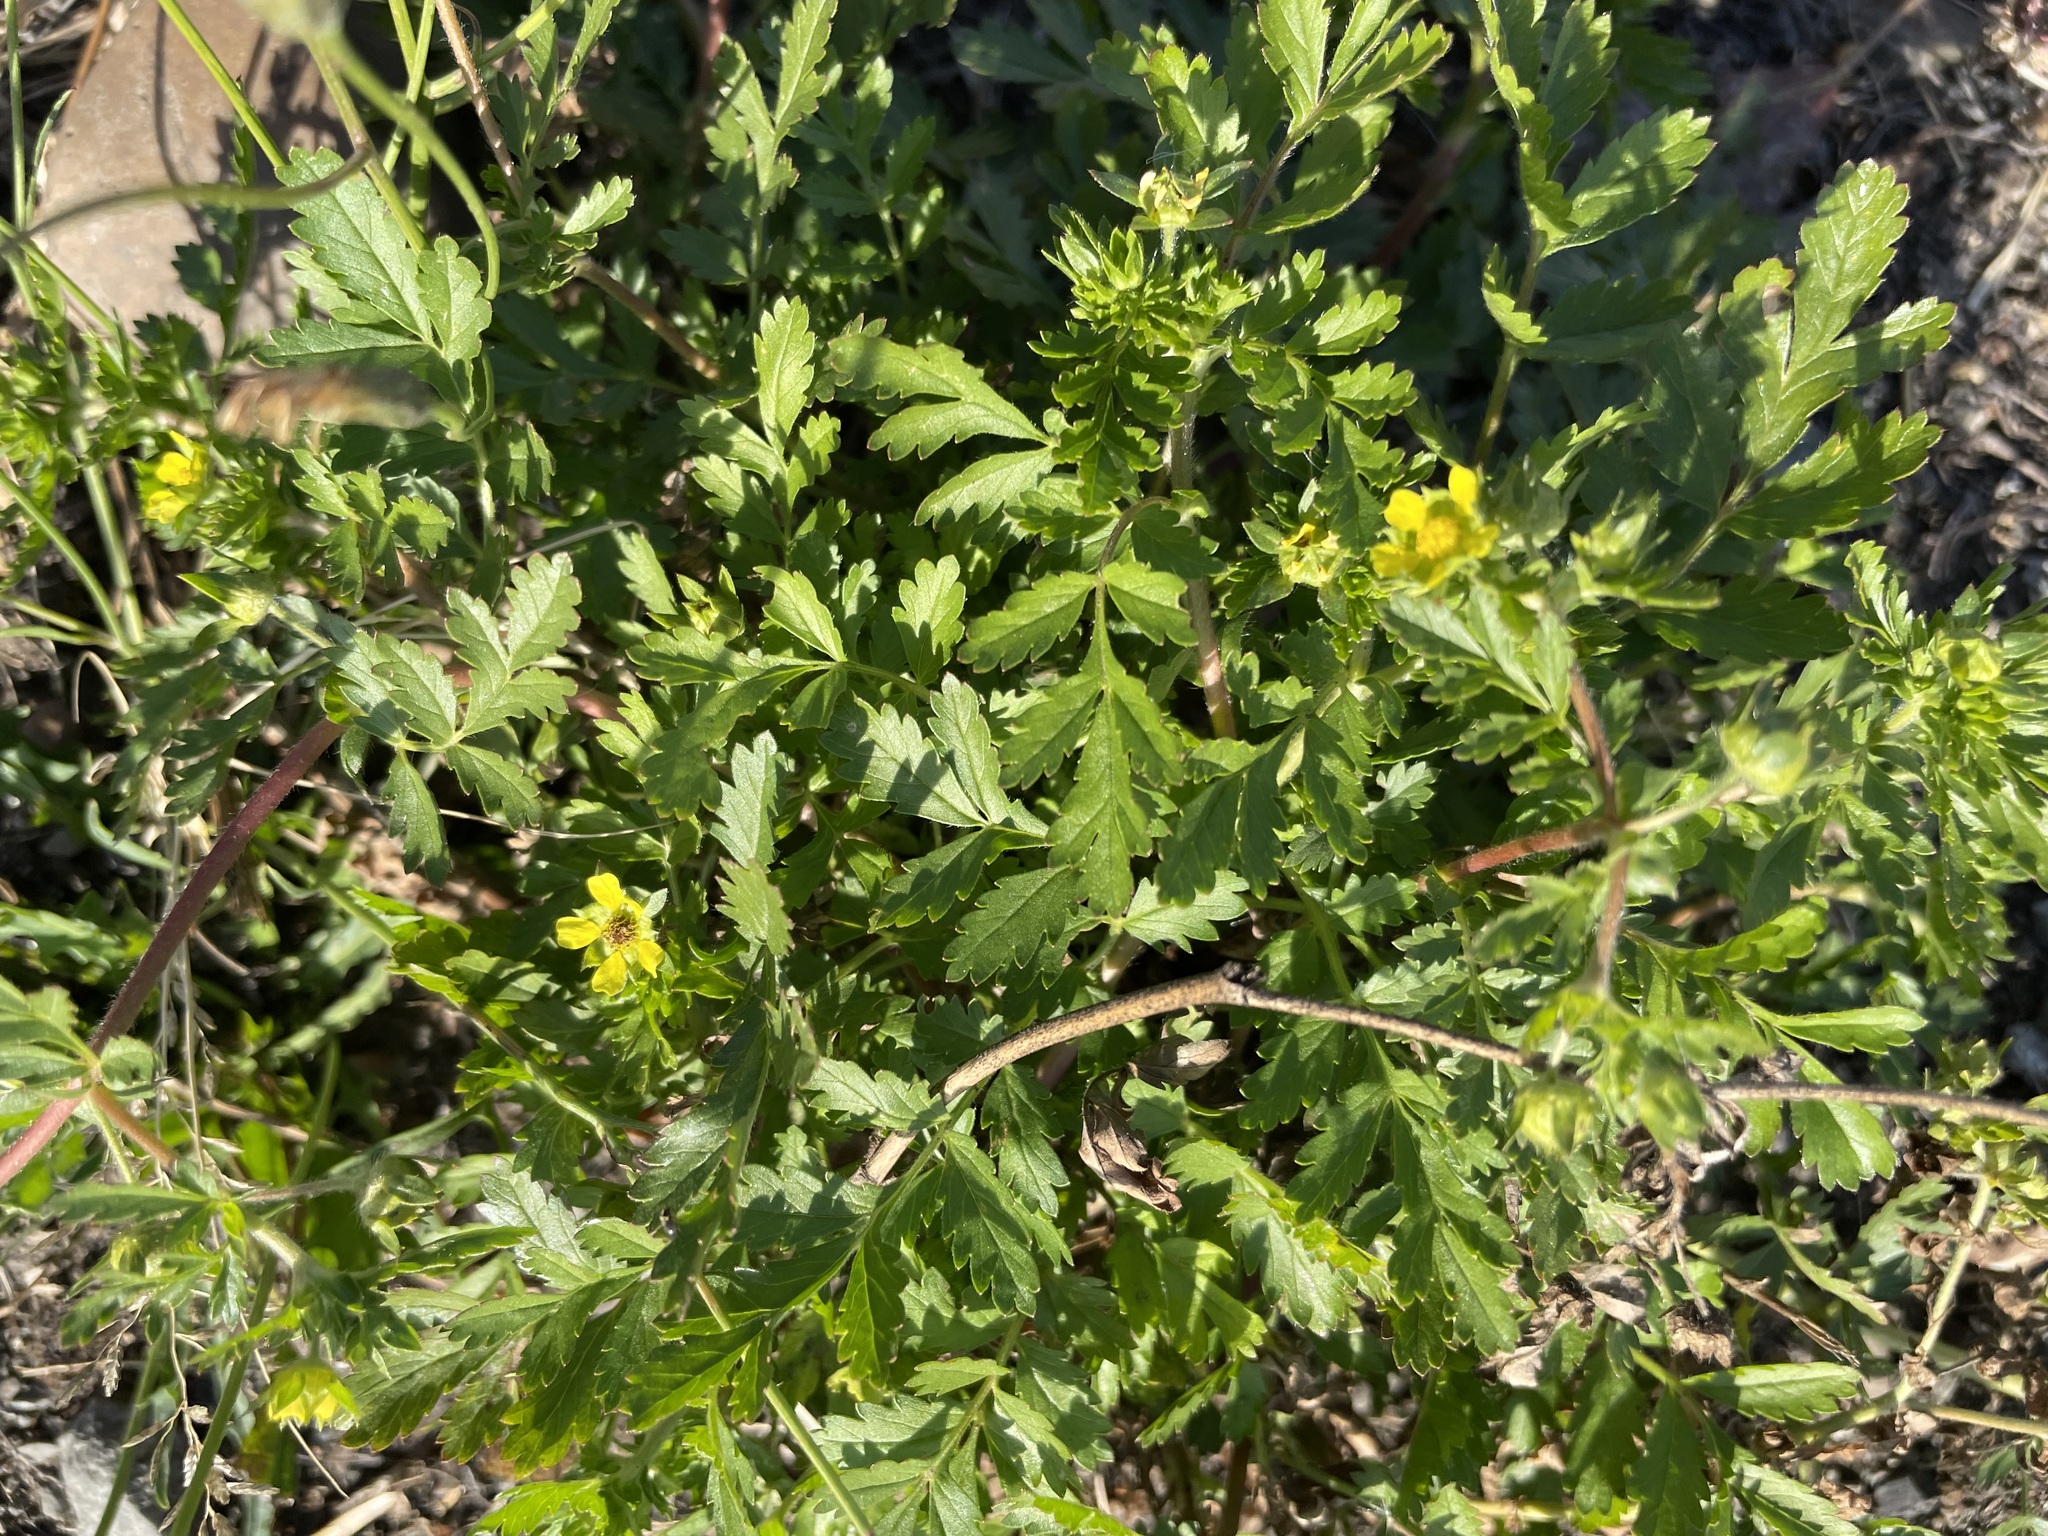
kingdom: Plantae
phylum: Tracheophyta
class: Magnoliopsida
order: Rosales
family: Rosaceae
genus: Potentilla
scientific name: Potentilla supina
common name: Prostrate cinquefoil
